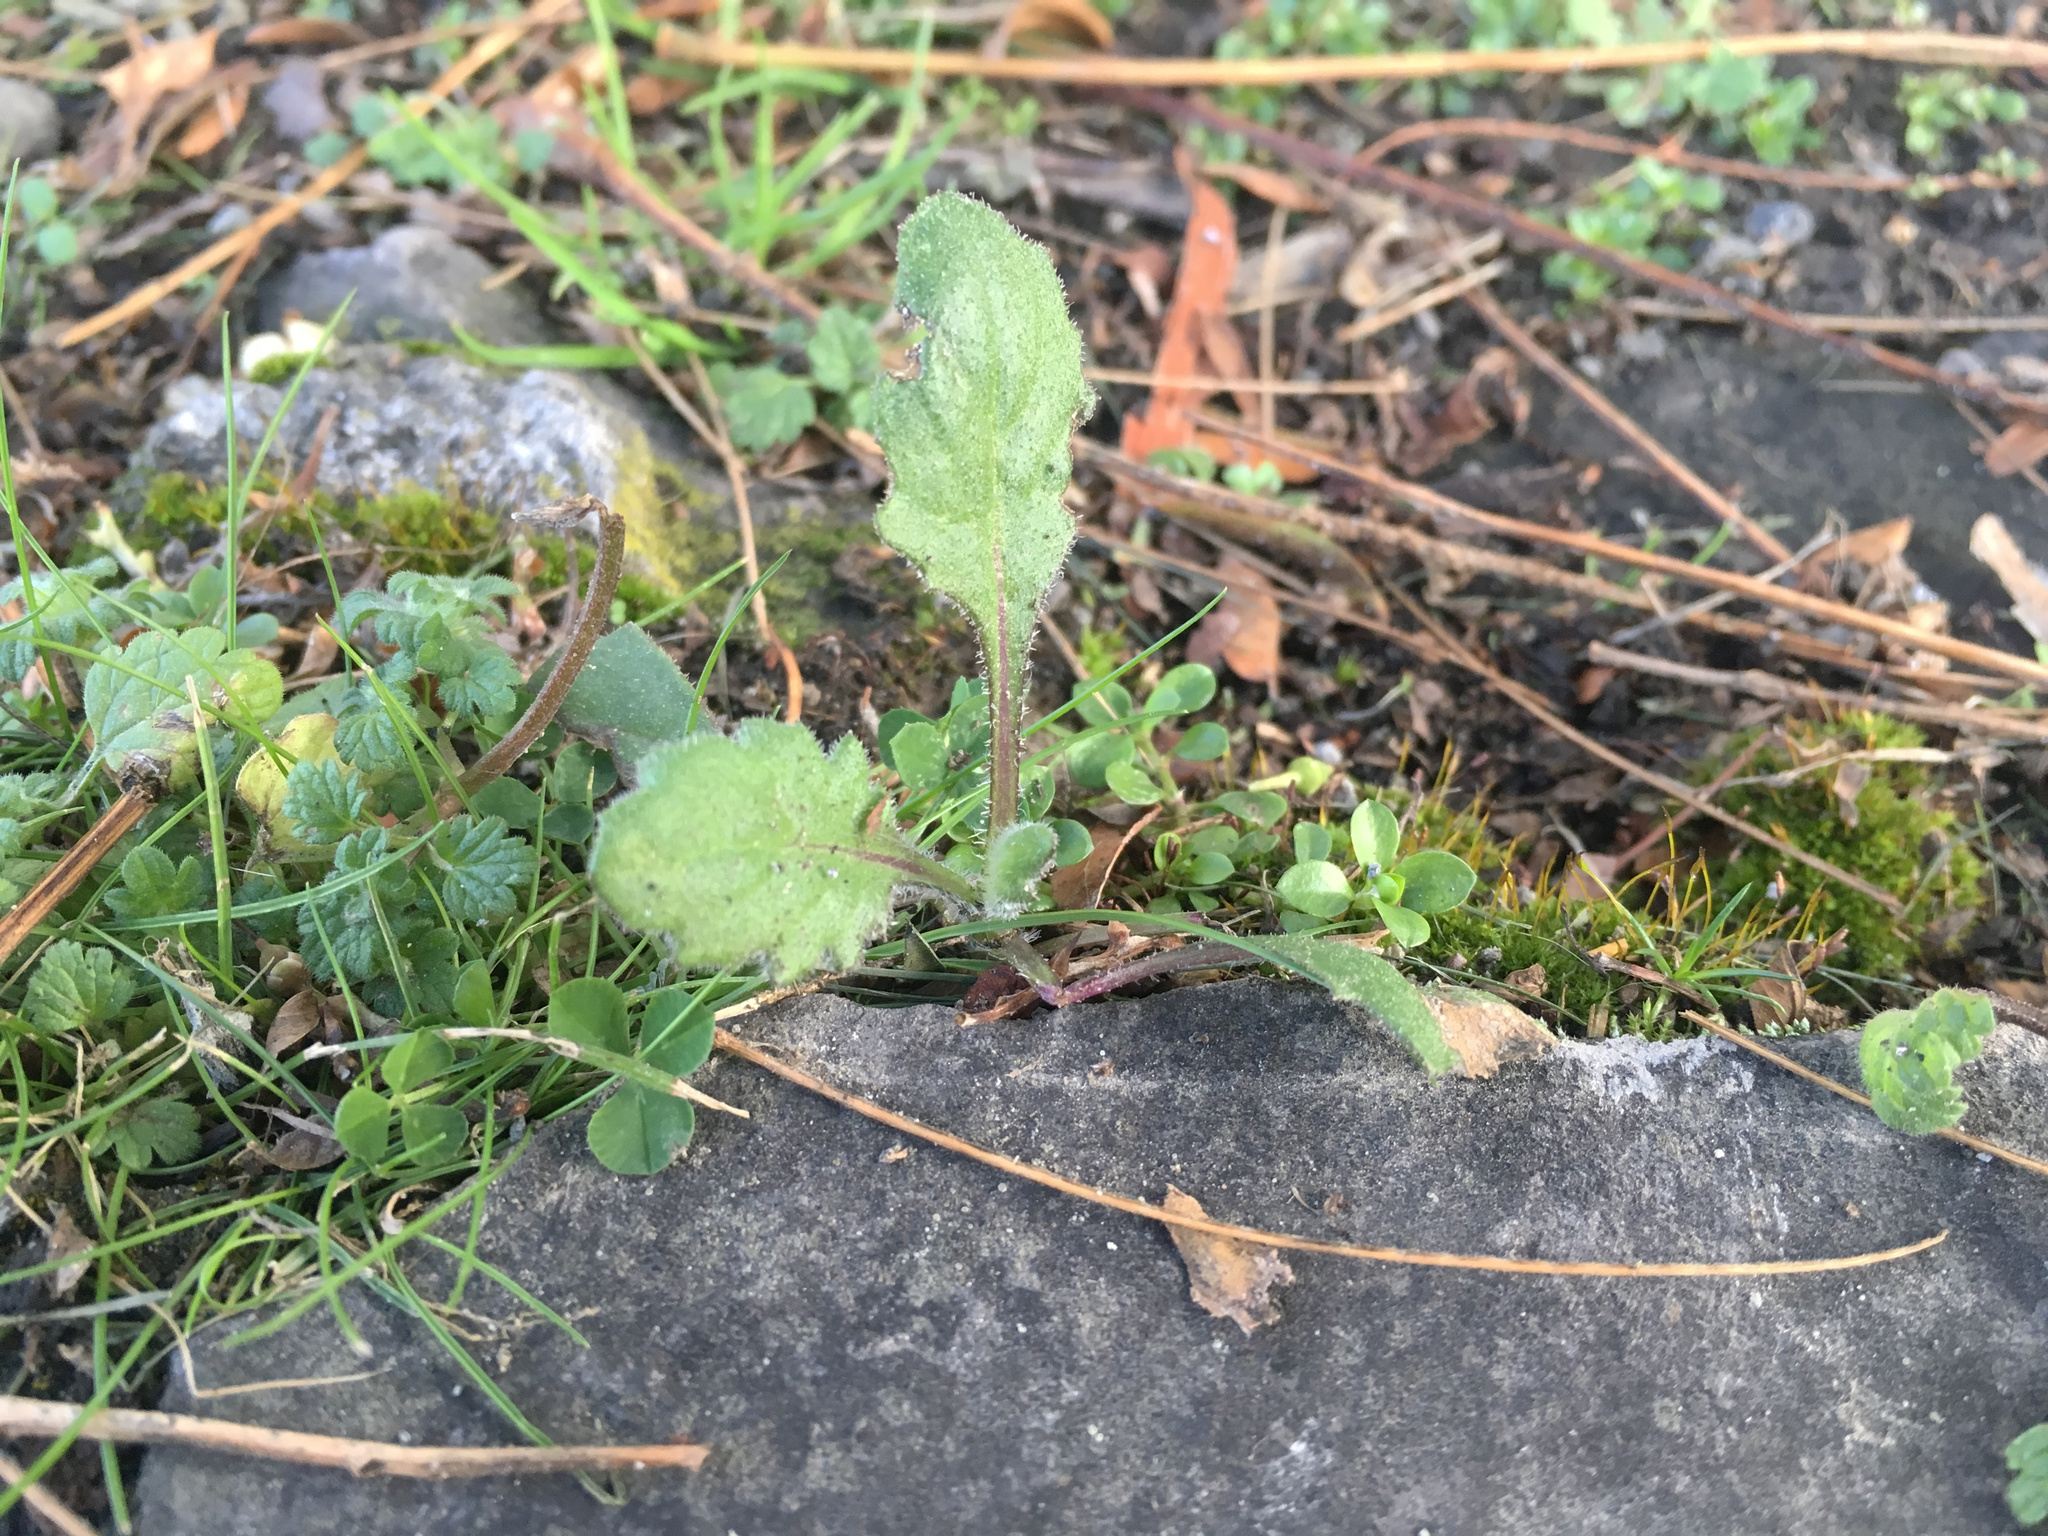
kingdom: Plantae
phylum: Tracheophyta
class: Magnoliopsida
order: Asterales
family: Asteraceae
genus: Senecio
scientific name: Senecio glomeratus
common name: Cutleaf burnweed
